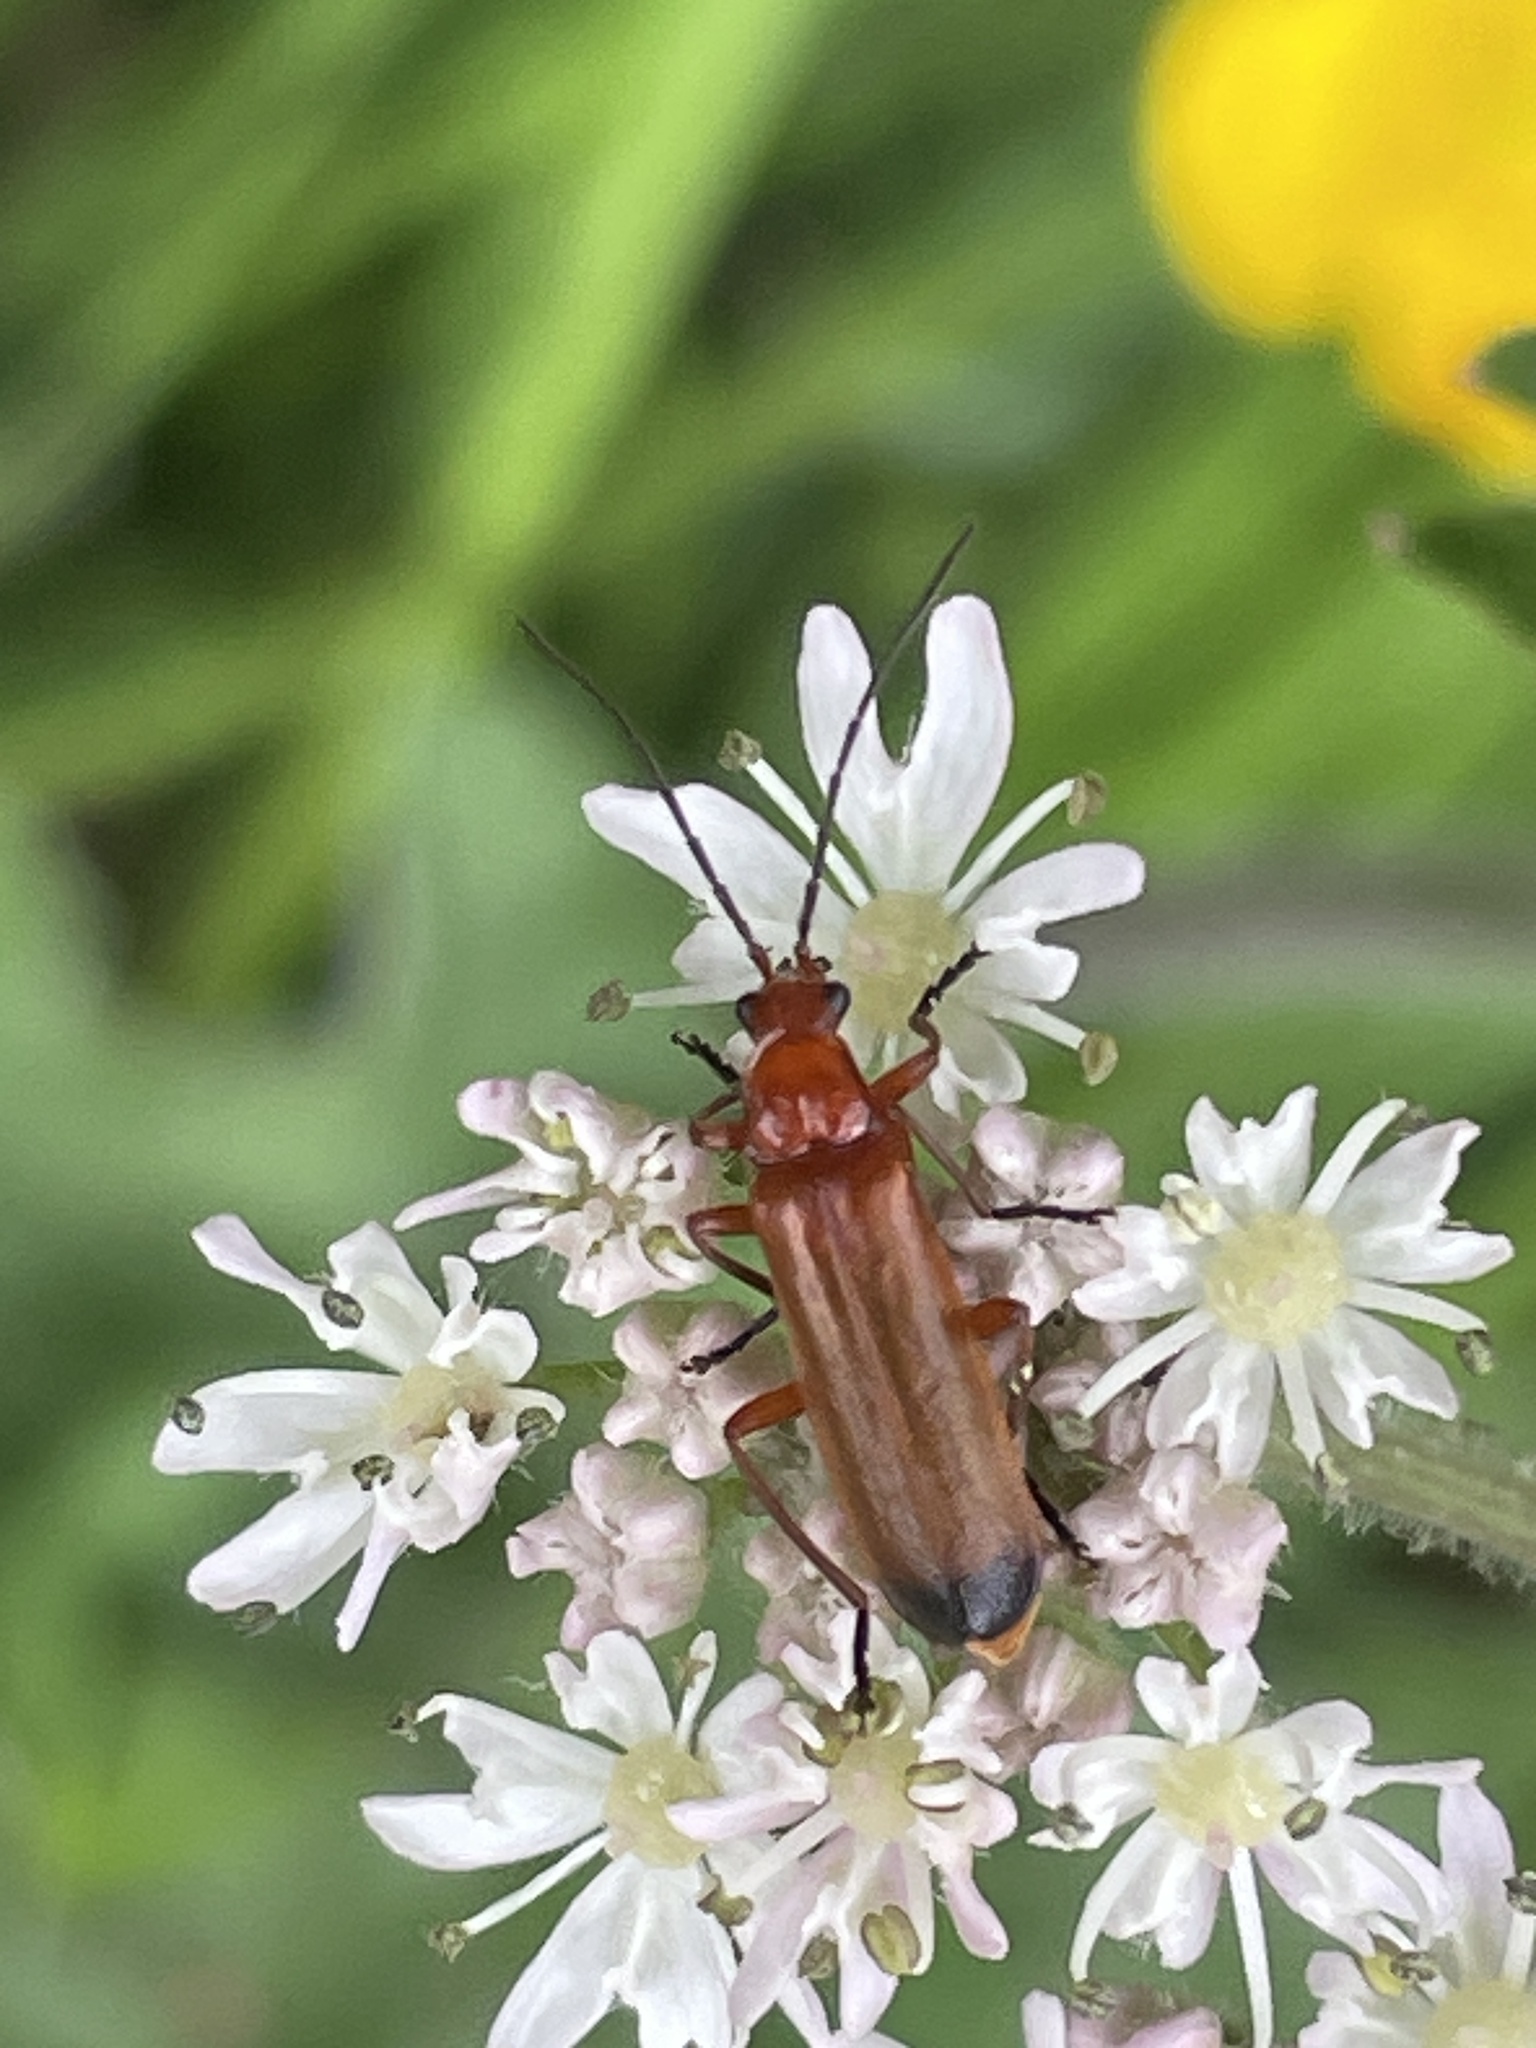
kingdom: Animalia
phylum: Arthropoda
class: Insecta
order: Coleoptera
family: Cantharidae
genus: Rhagonycha
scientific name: Rhagonycha fulva
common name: Common red soldier beetle
